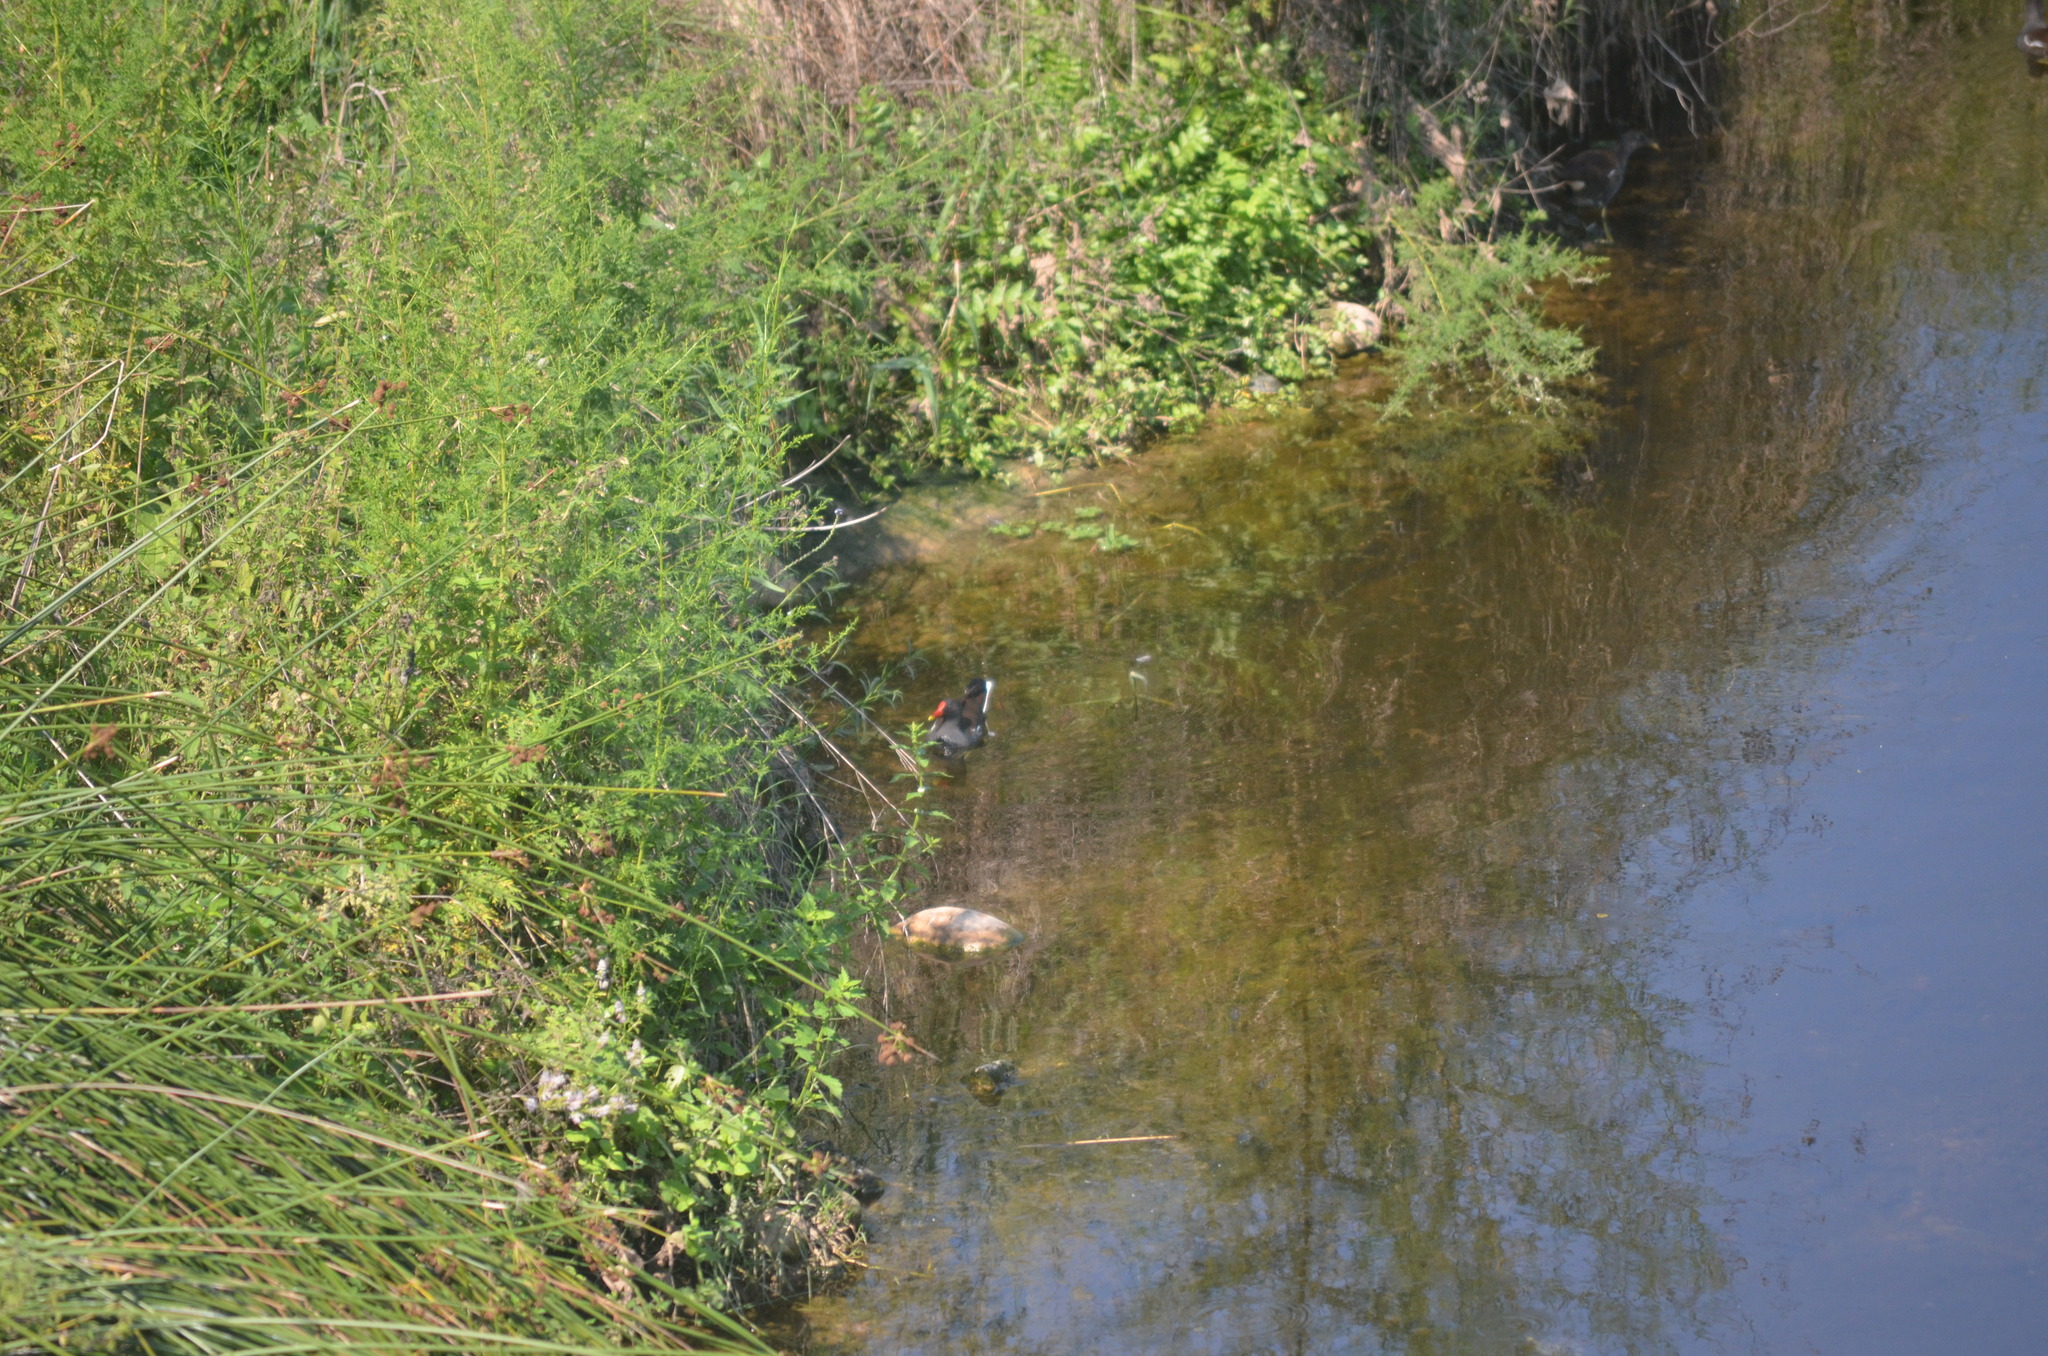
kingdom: Animalia
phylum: Chordata
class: Aves
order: Gruiformes
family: Rallidae
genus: Gallinula
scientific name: Gallinula chloropus
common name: Common moorhen
